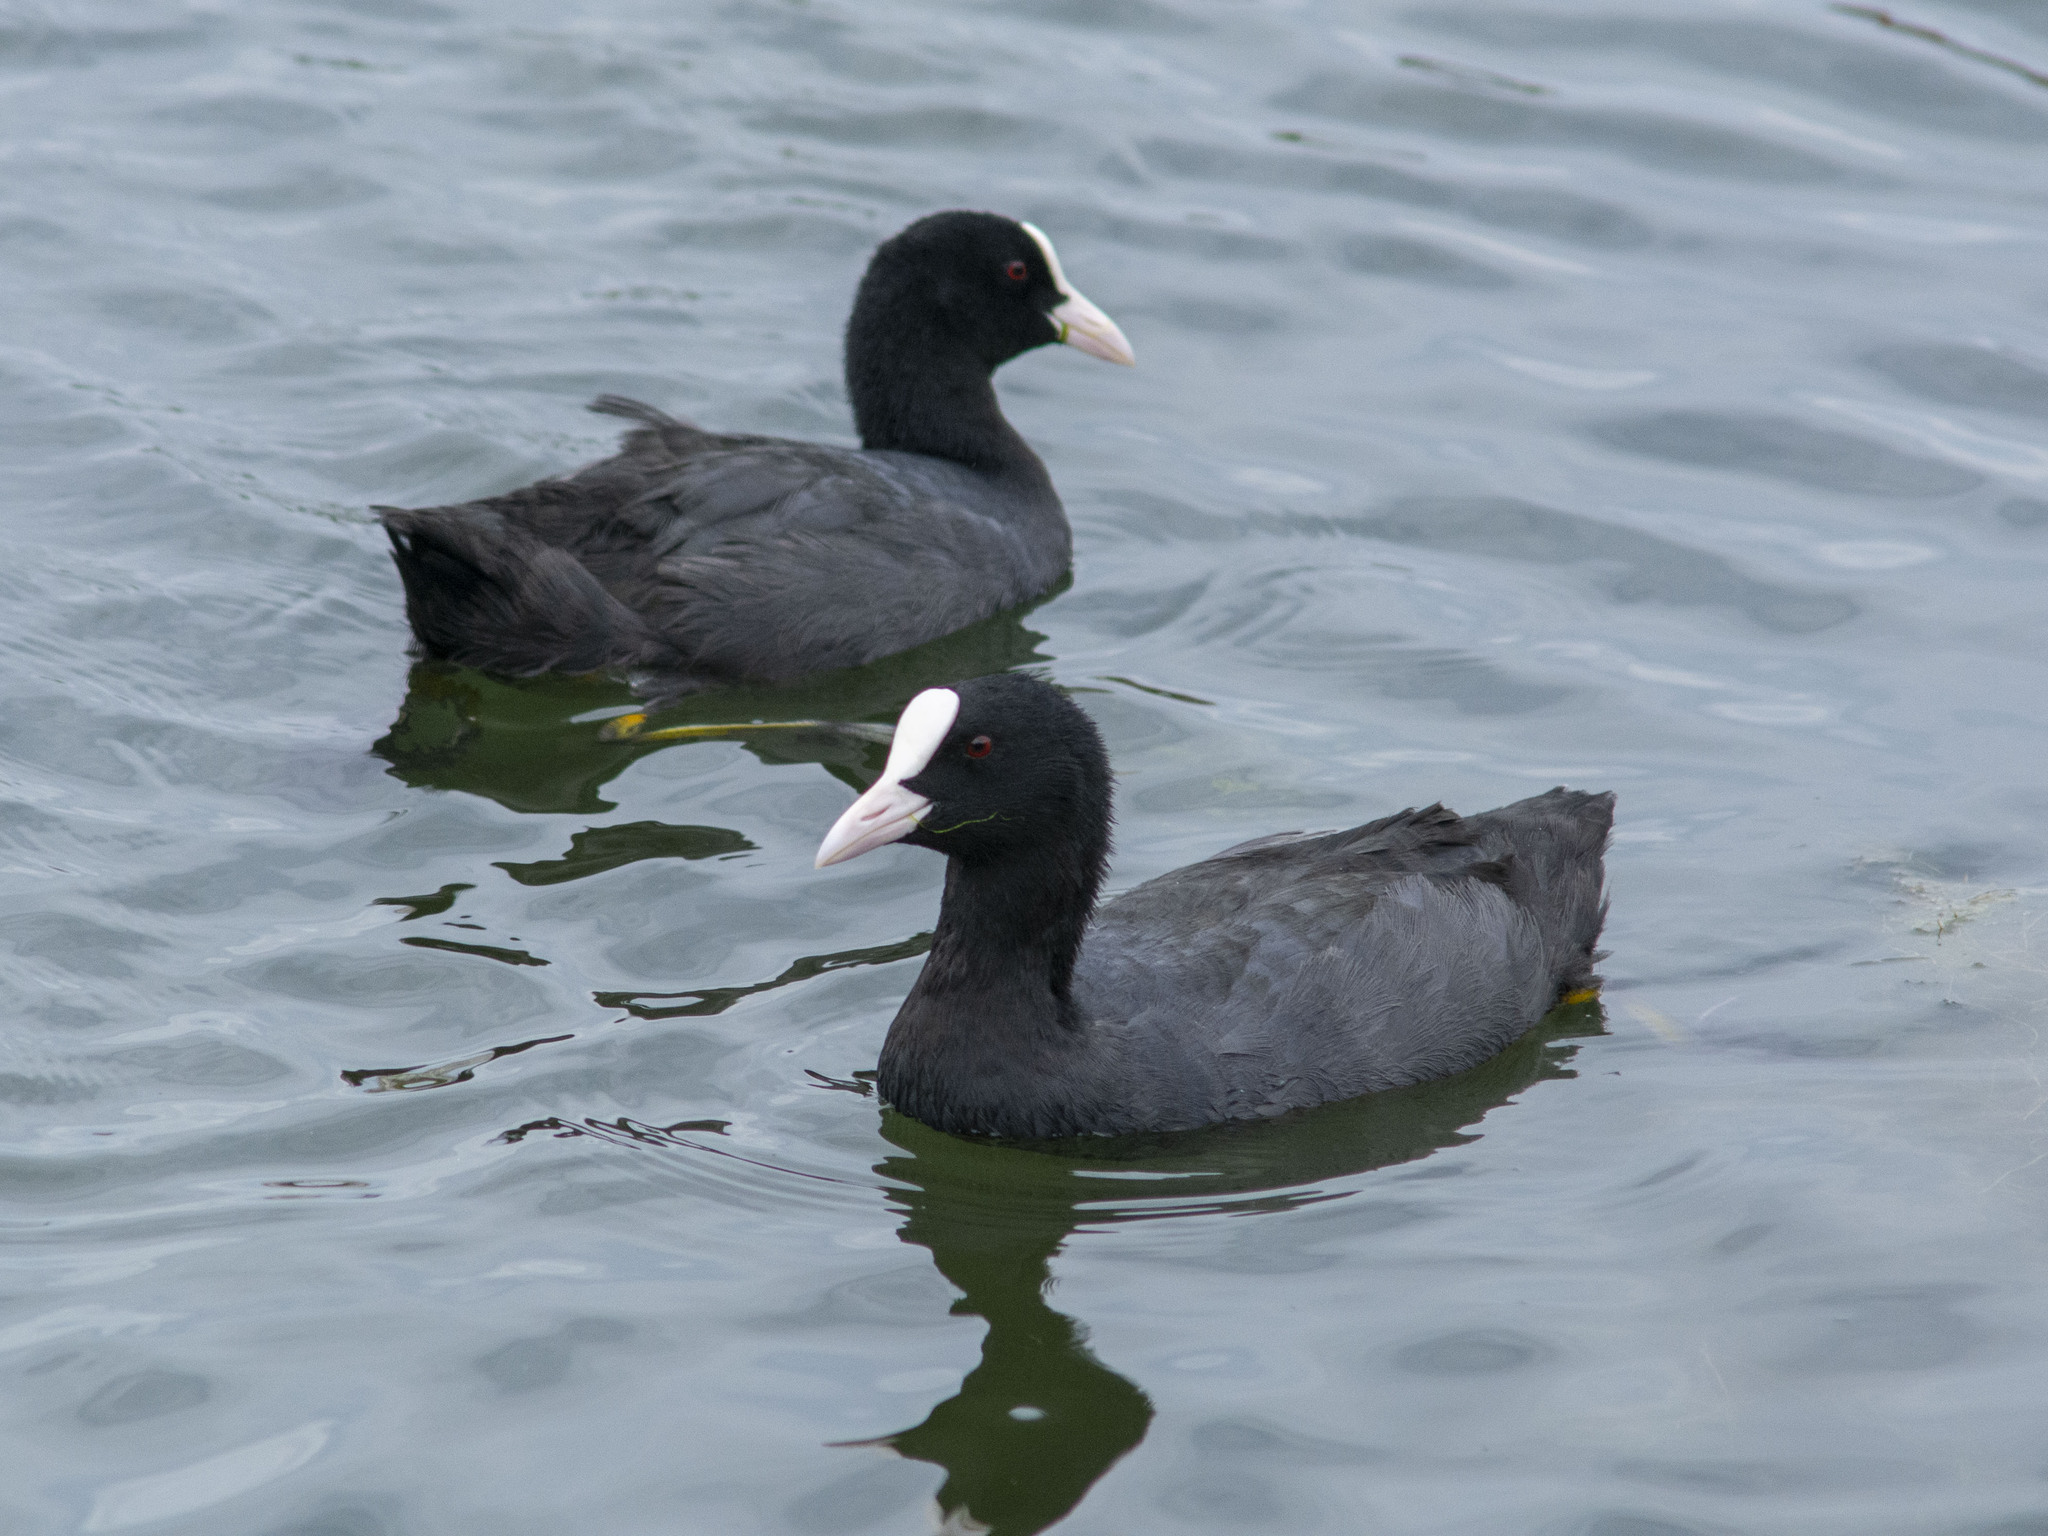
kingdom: Animalia
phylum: Chordata
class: Aves
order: Gruiformes
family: Rallidae
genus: Fulica
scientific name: Fulica atra
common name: Eurasian coot
